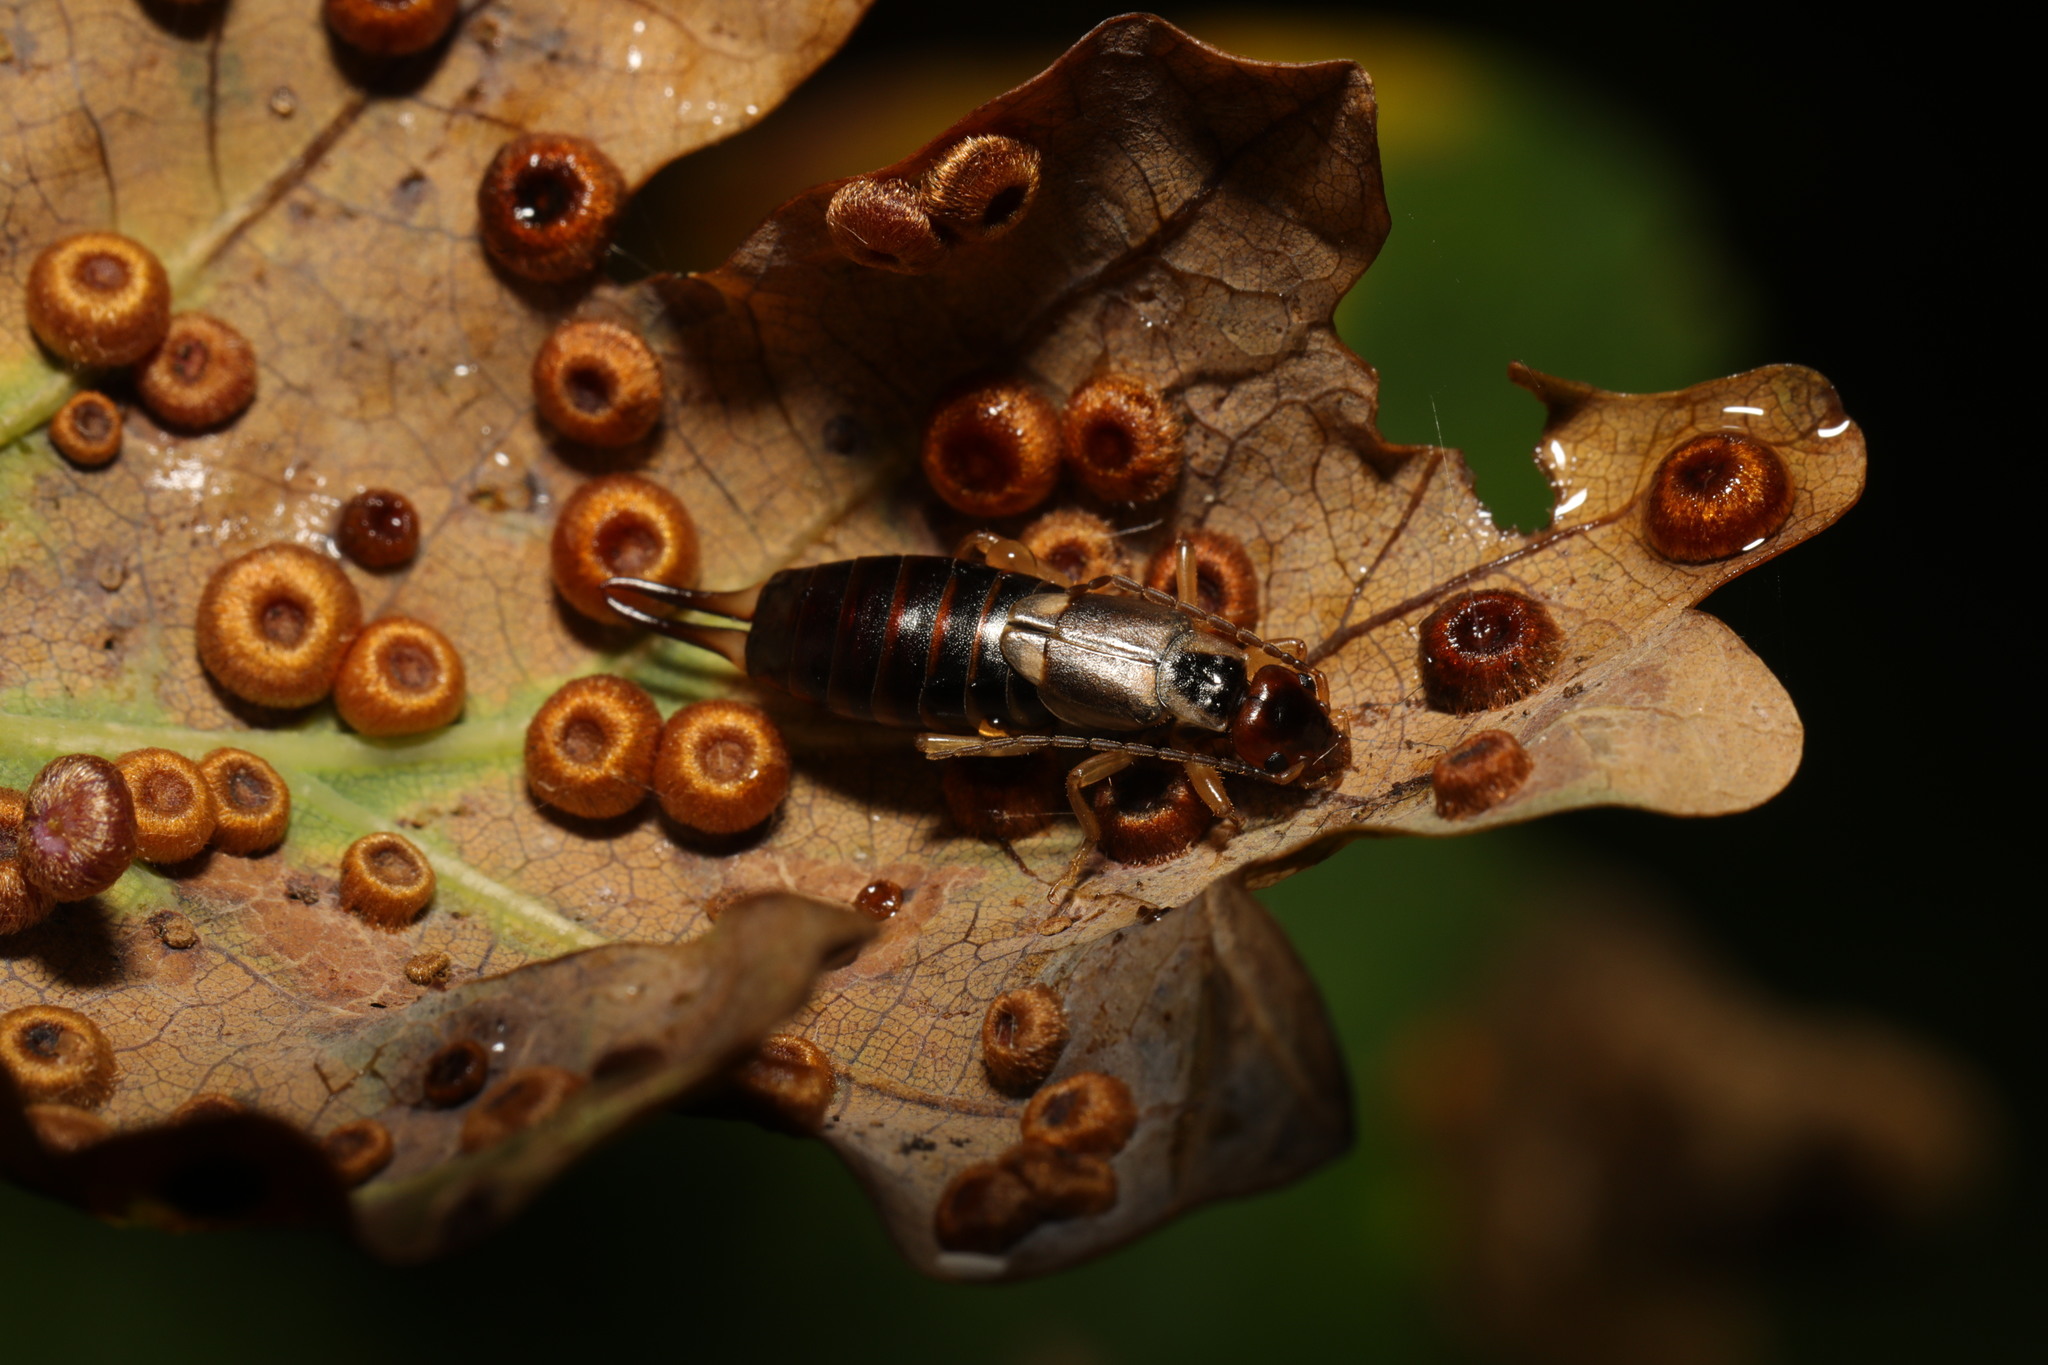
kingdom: Animalia
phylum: Arthropoda
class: Insecta
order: Dermaptera
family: Forficulidae
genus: Forficula
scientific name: Forficula
